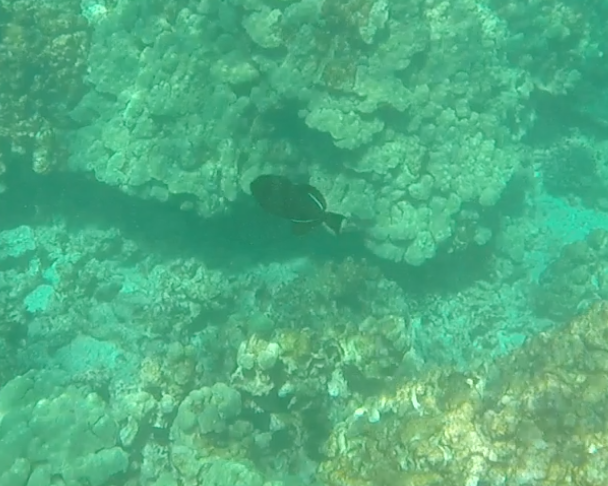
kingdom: Animalia
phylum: Chordata
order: Tetraodontiformes
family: Balistidae
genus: Melichthys
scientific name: Melichthys niger
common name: Black durgon
